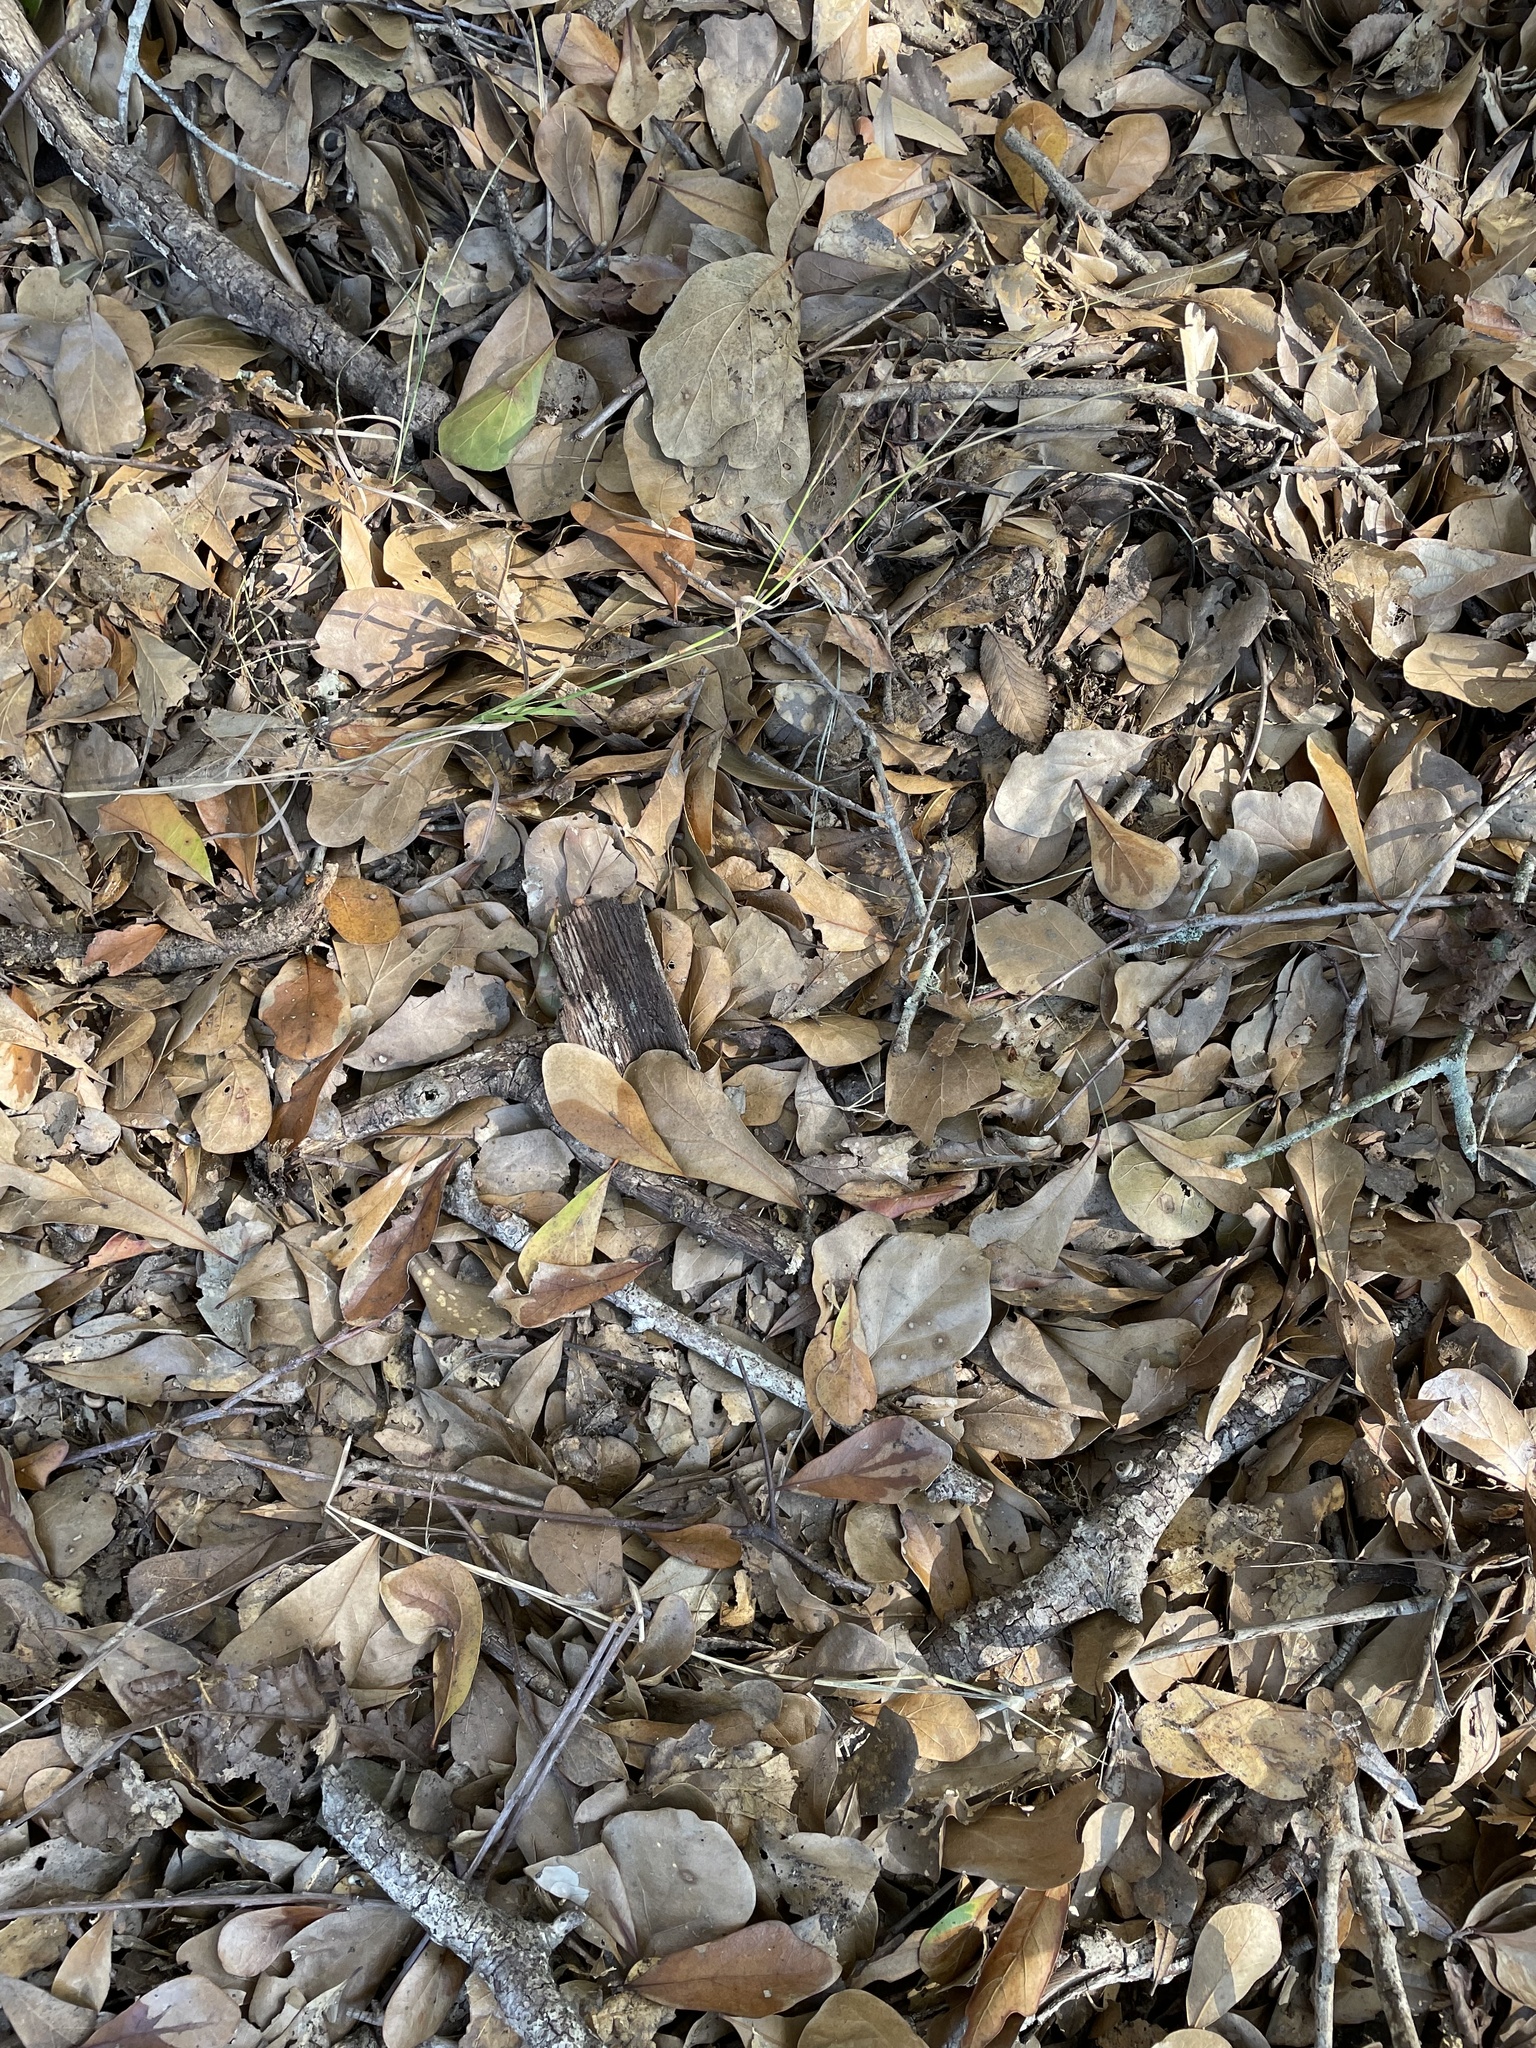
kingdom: Plantae
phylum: Tracheophyta
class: Magnoliopsida
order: Fagales
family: Fagaceae
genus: Quercus
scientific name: Quercus nigra
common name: Water oak
